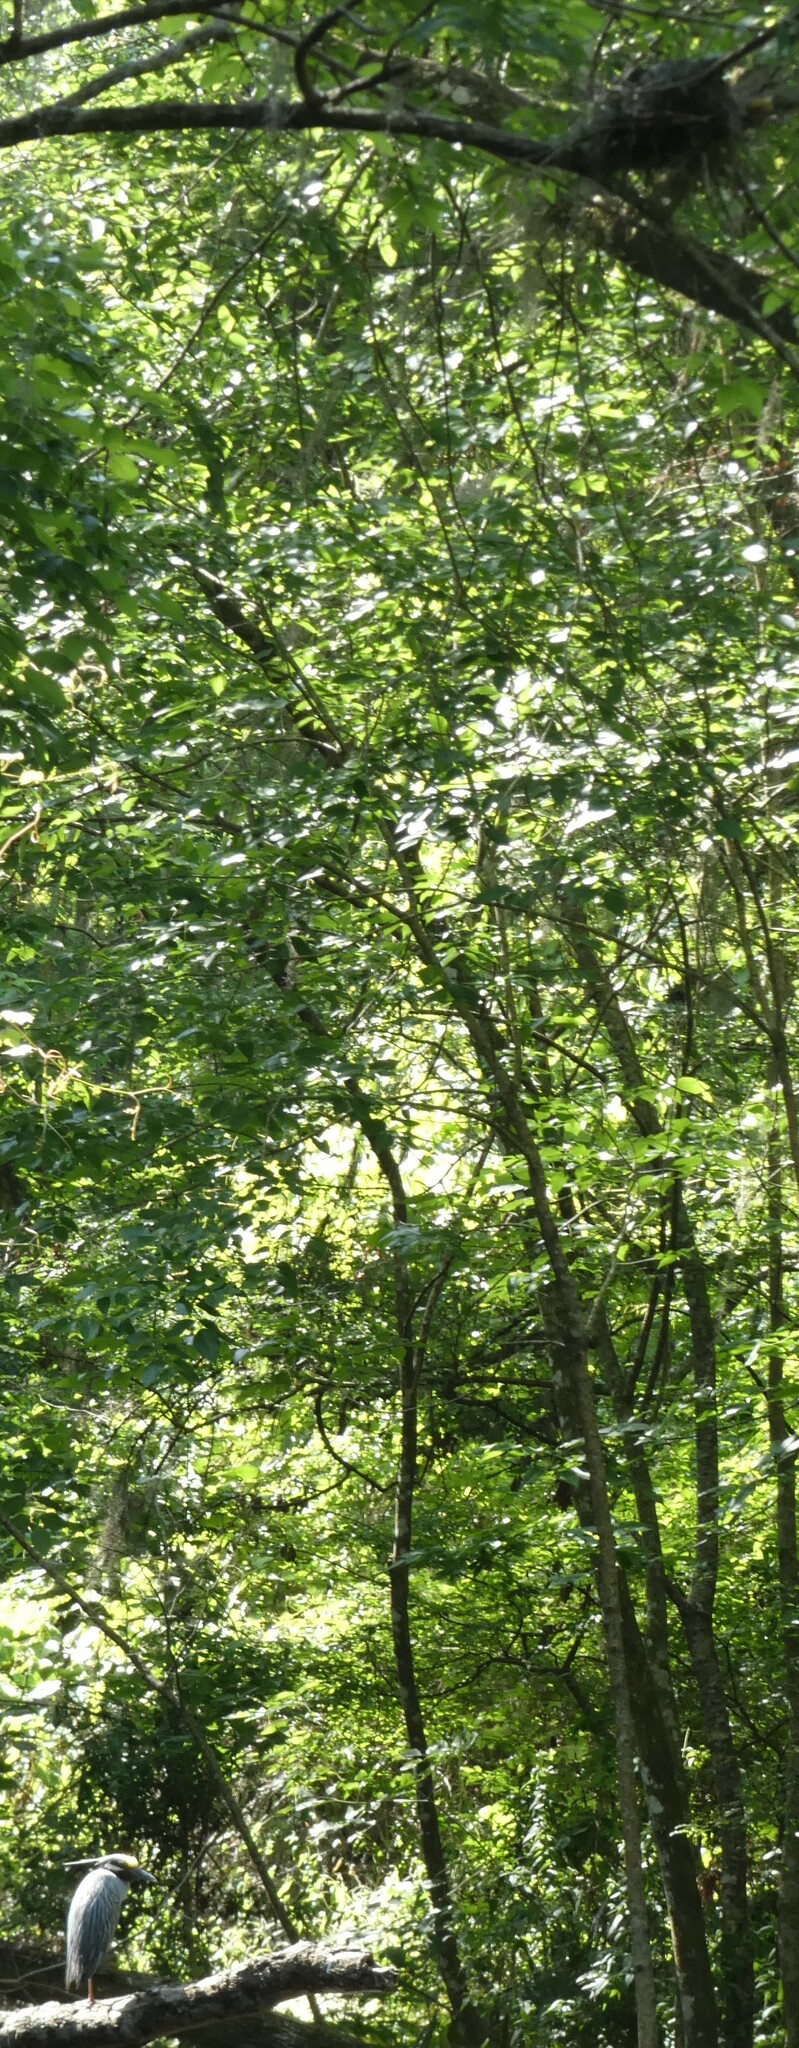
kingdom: Animalia
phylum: Chordata
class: Aves
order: Pelecaniformes
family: Ardeidae
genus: Nyctanassa
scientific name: Nyctanassa violacea
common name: Yellow-crowned night heron
